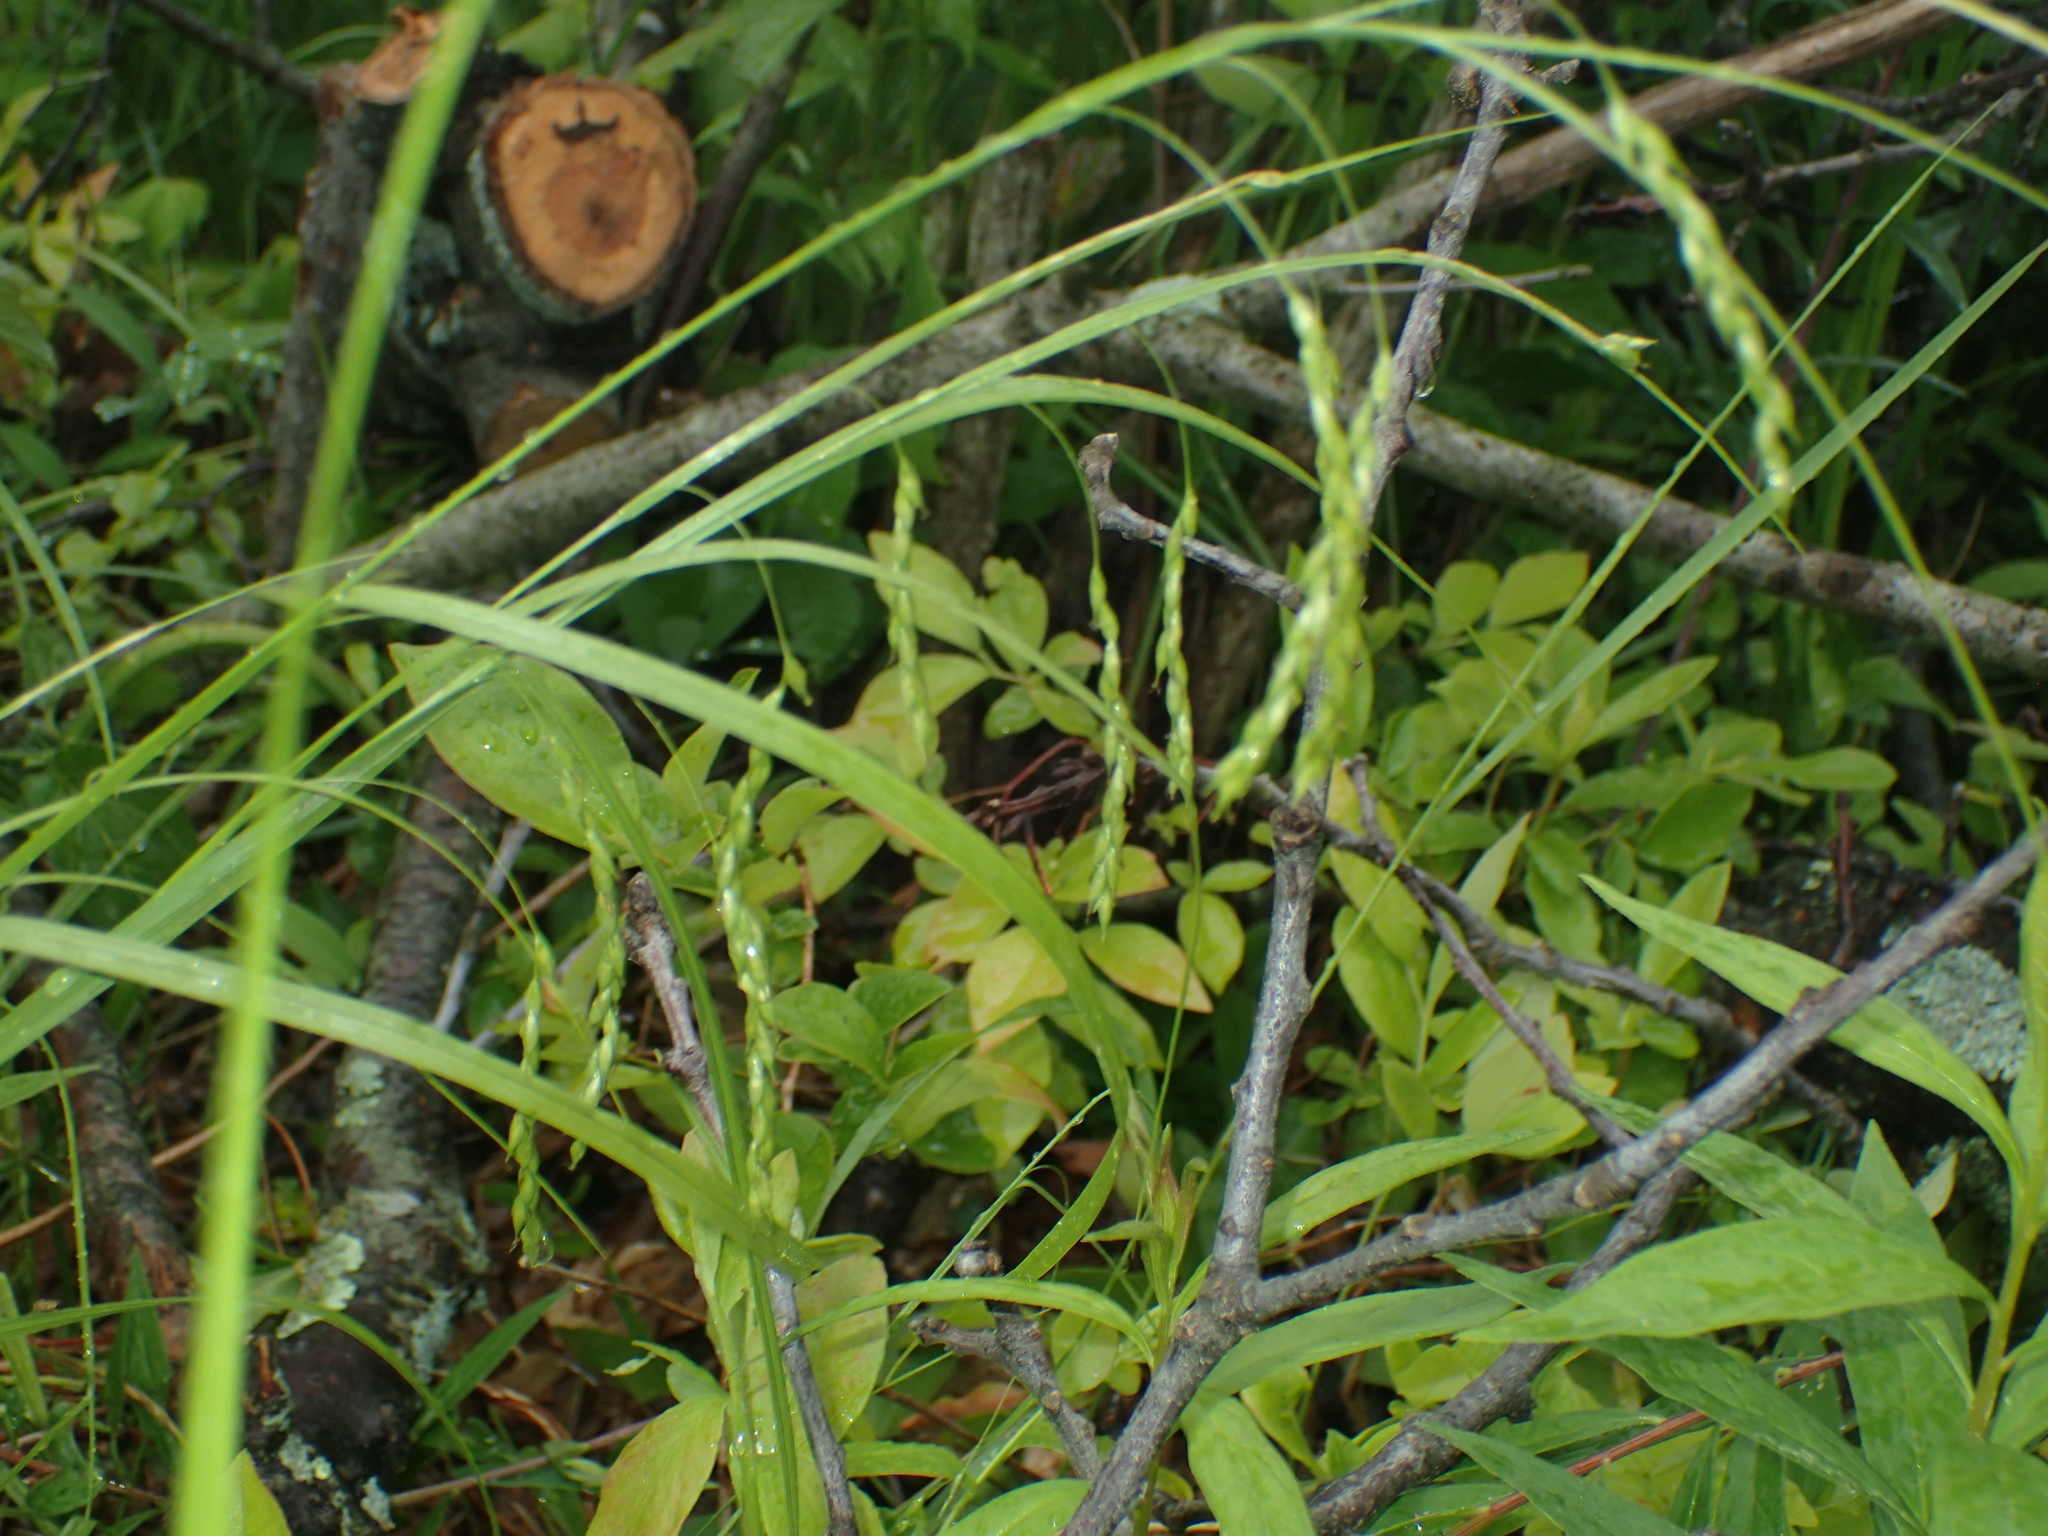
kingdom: Plantae
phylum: Tracheophyta
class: Liliopsida
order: Poales
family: Cyperaceae
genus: Carex
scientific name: Carex debilis
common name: White-edge sedge
